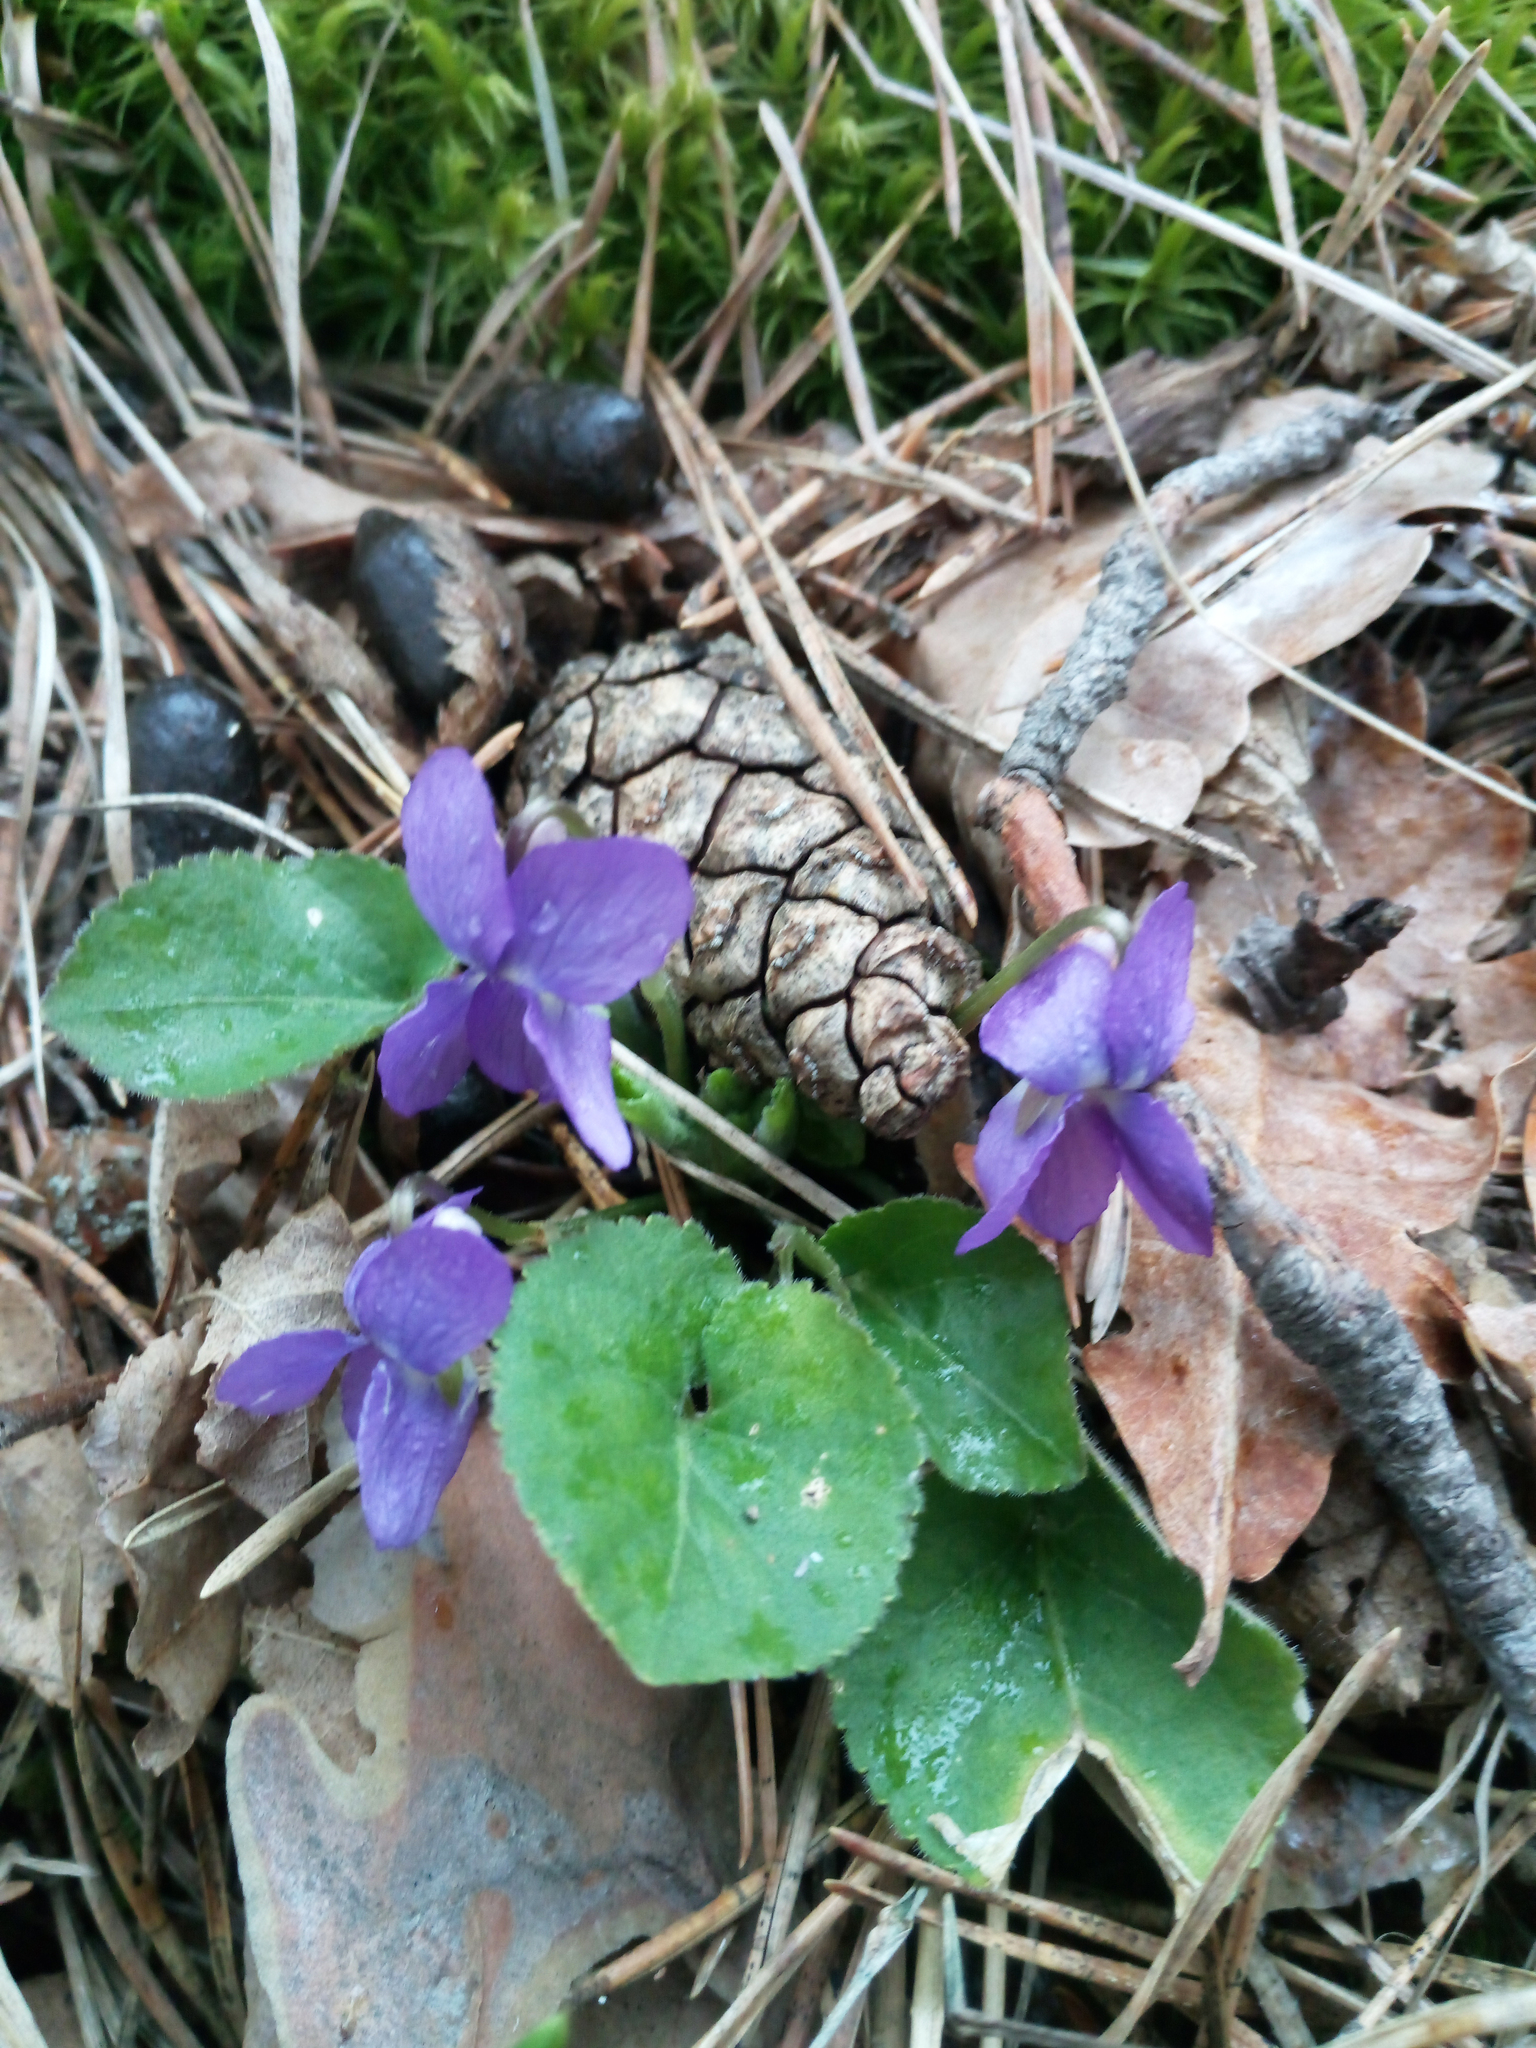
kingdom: Plantae
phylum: Tracheophyta
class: Magnoliopsida
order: Malpighiales
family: Violaceae
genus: Viola
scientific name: Viola collina
